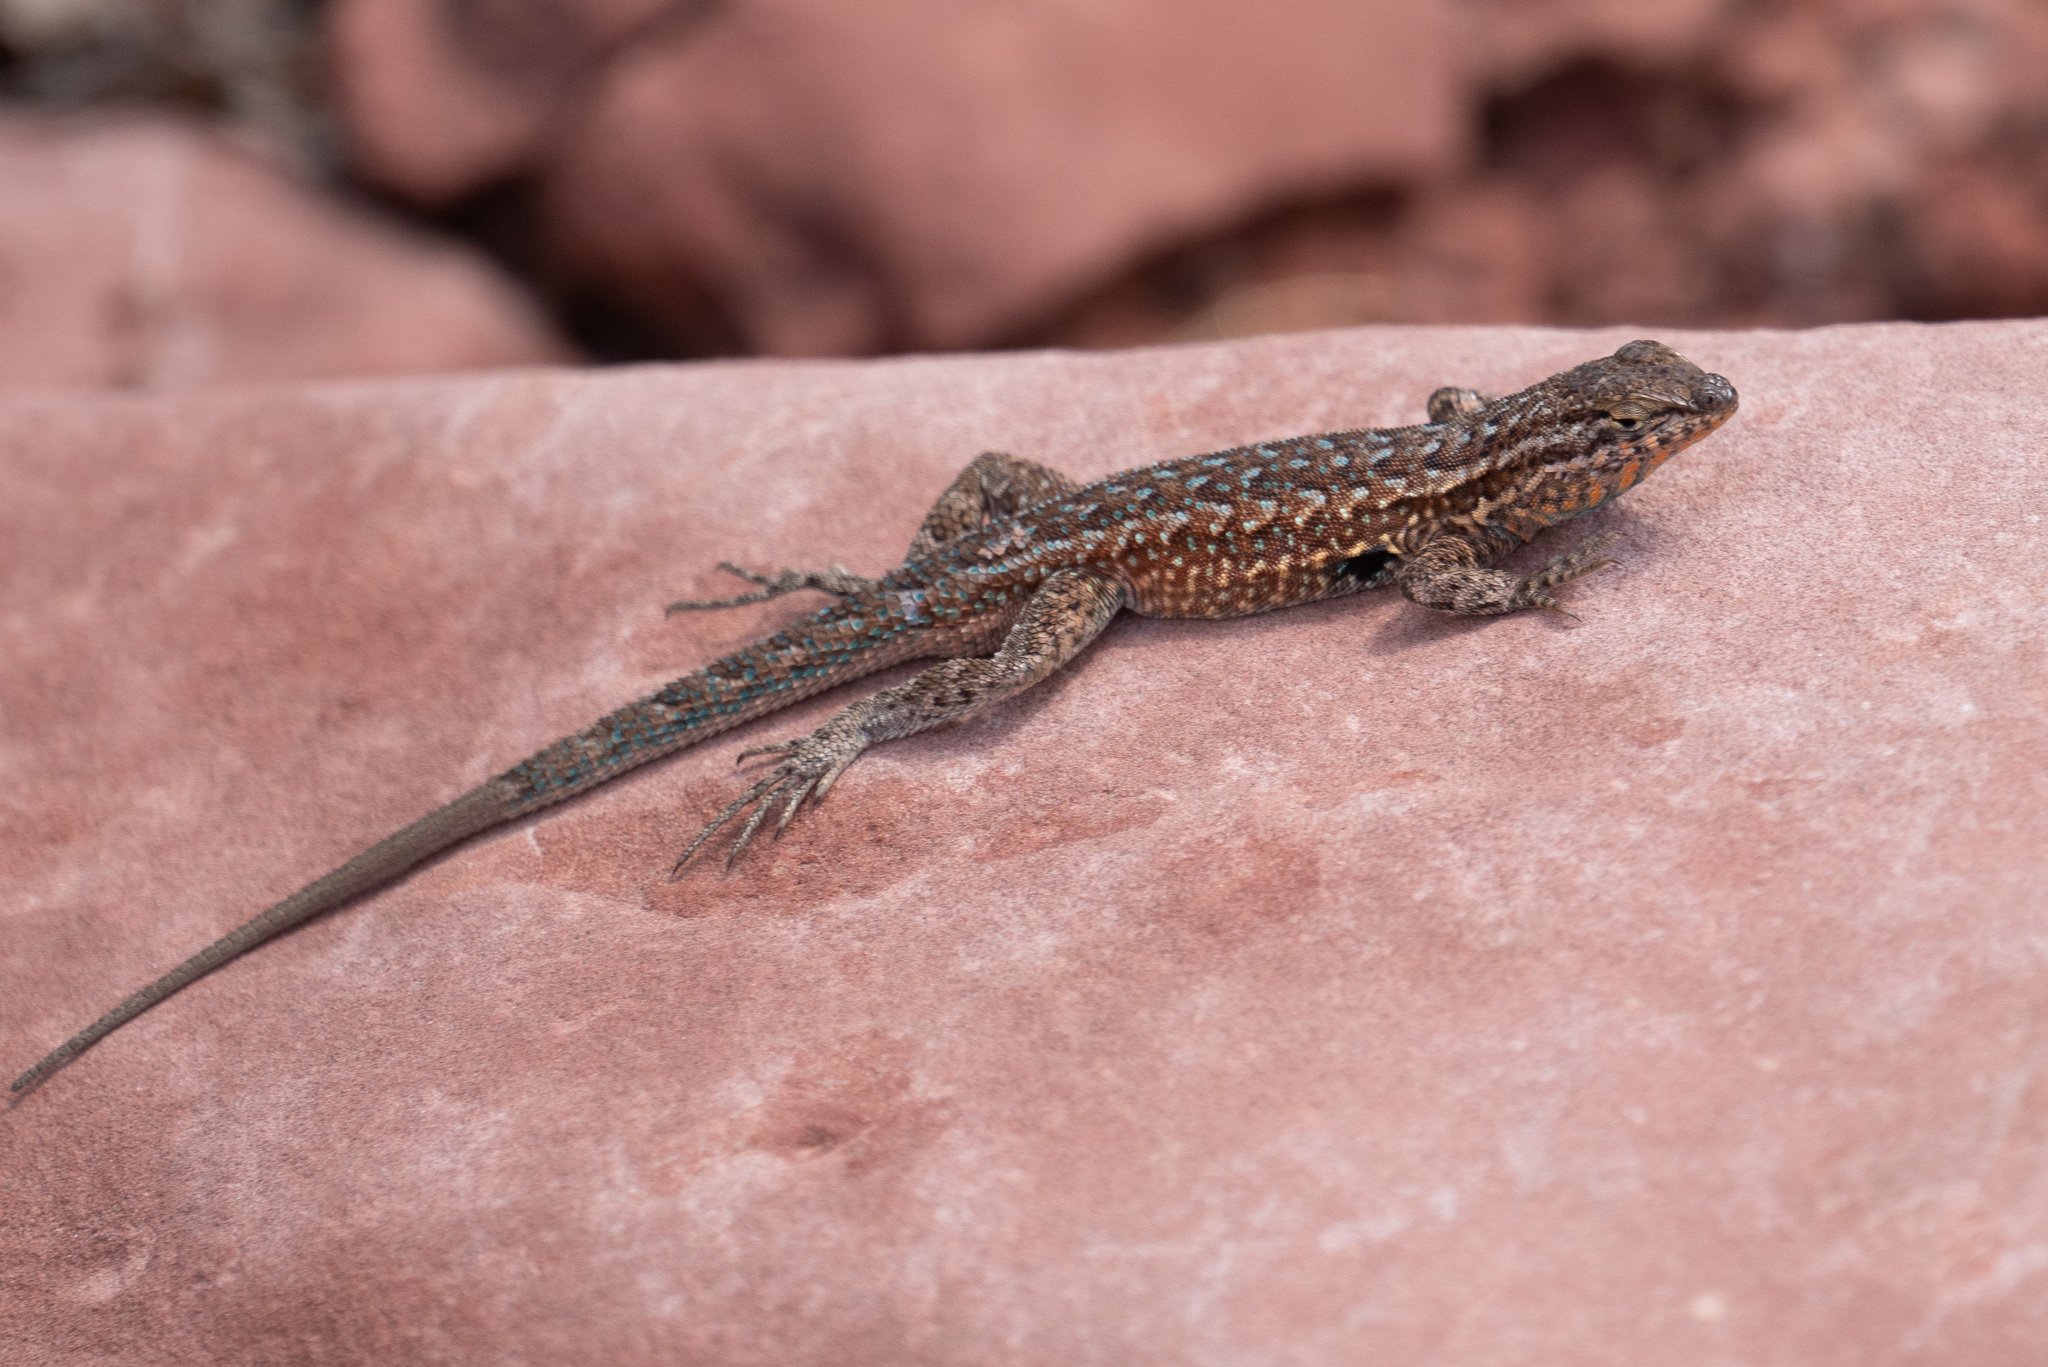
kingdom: Animalia
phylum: Chordata
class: Squamata
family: Phrynosomatidae
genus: Uta
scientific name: Uta stansburiana
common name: Side-blotched lizard
